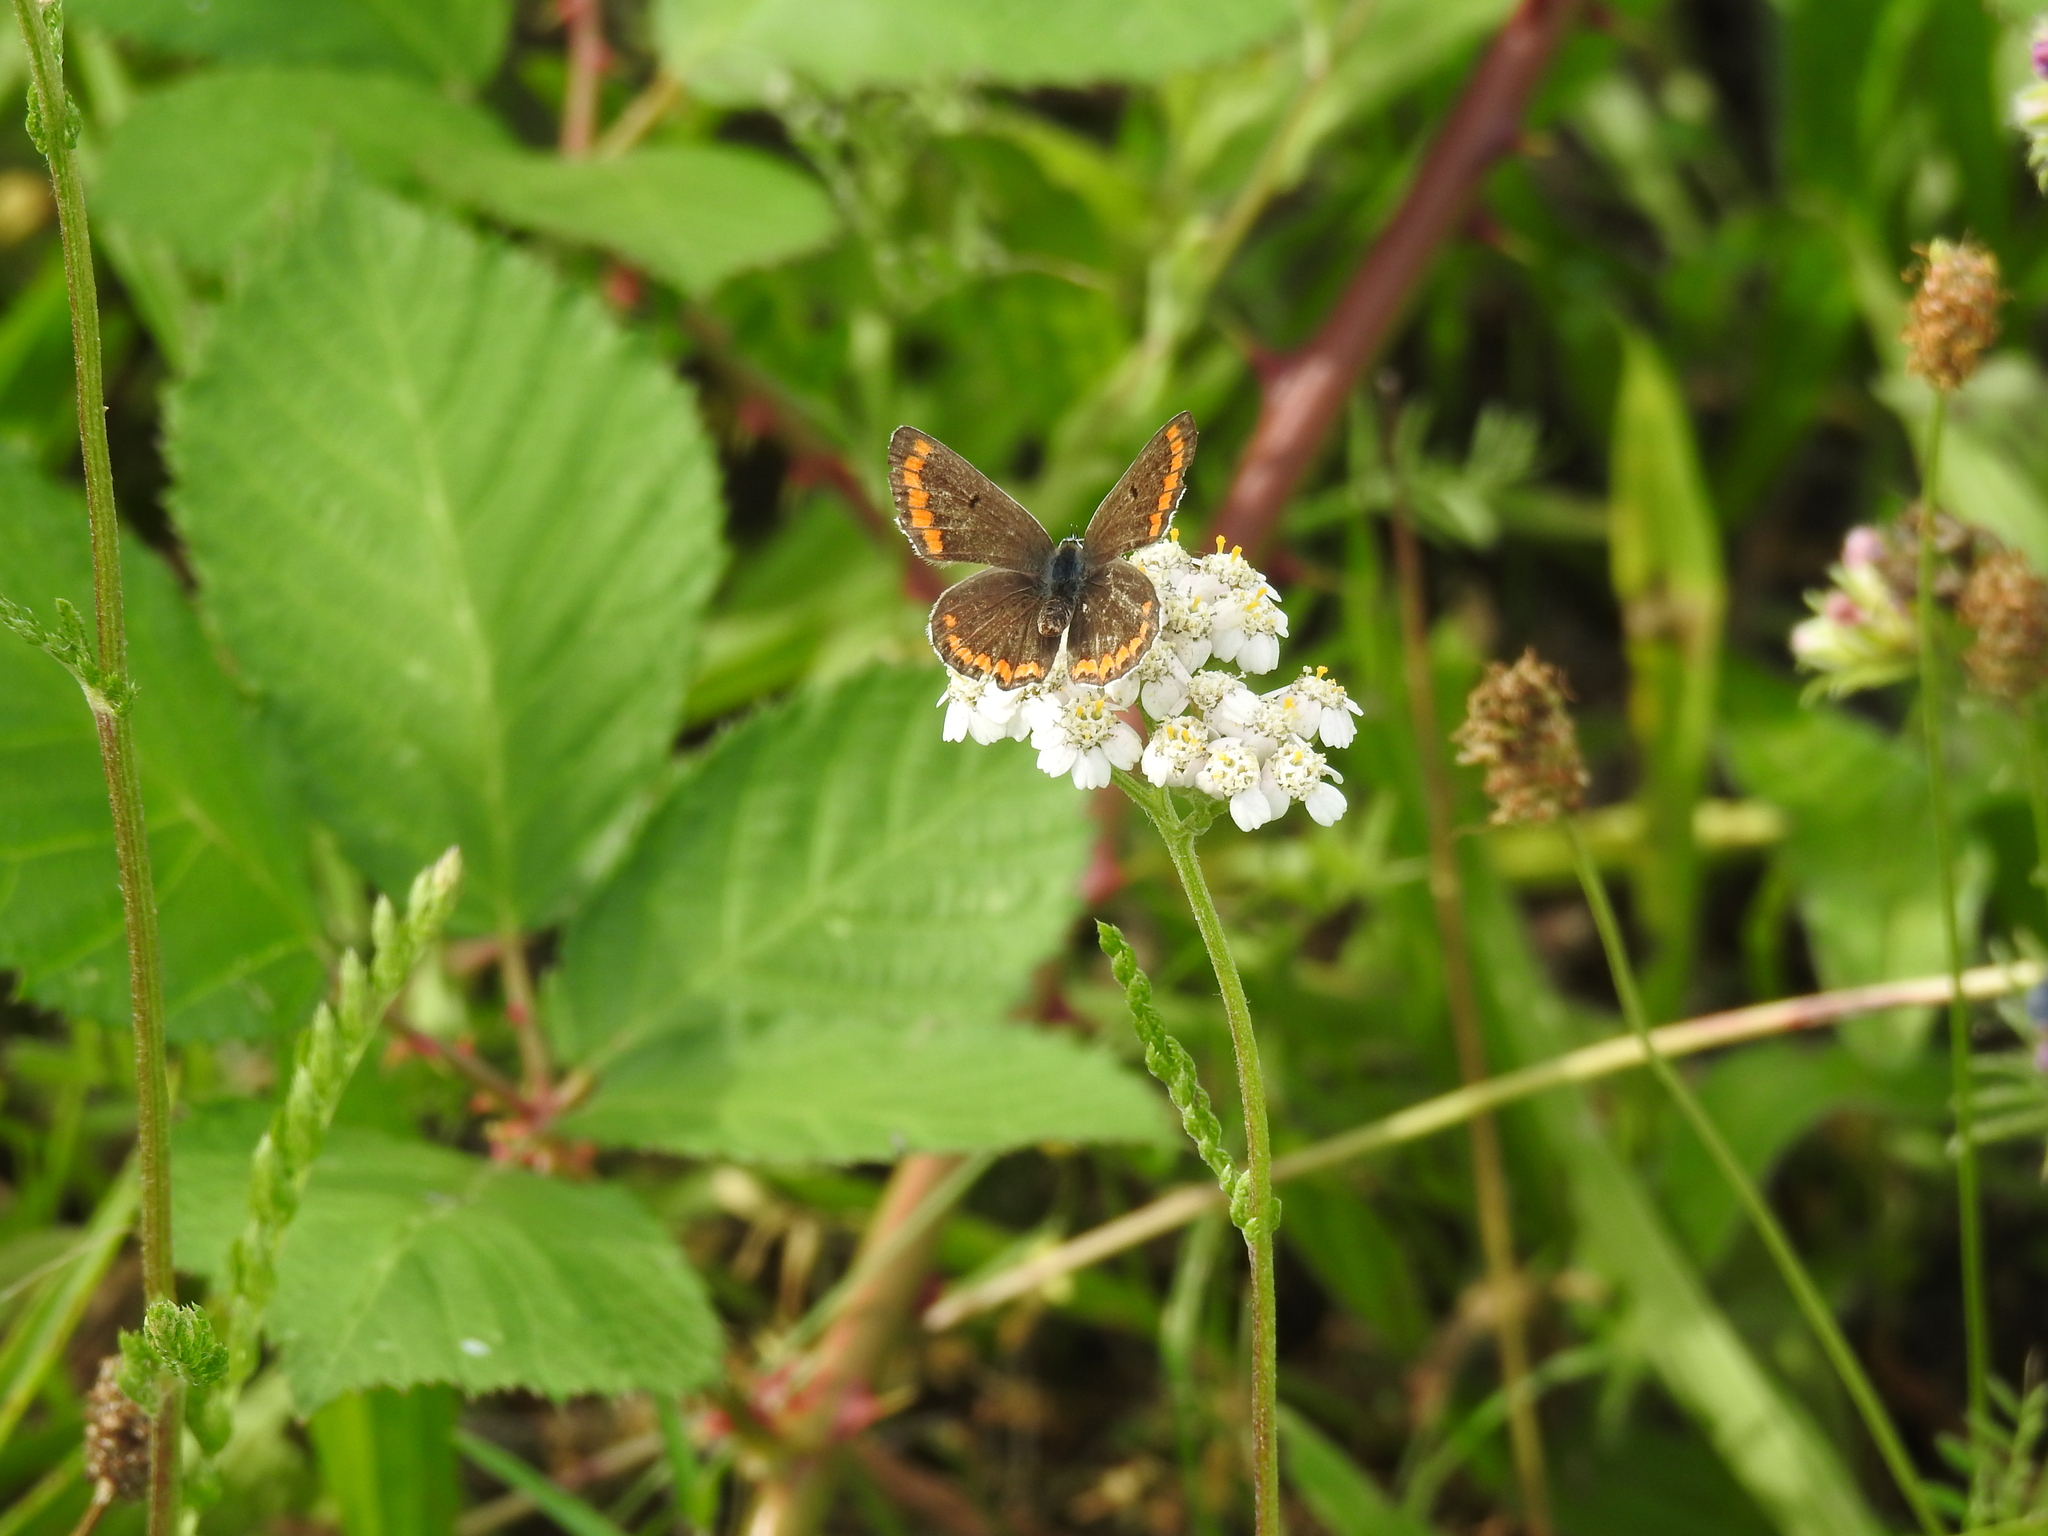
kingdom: Animalia
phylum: Arthropoda
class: Insecta
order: Lepidoptera
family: Lycaenidae
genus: Aricia
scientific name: Aricia agestis
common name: Brown argus
